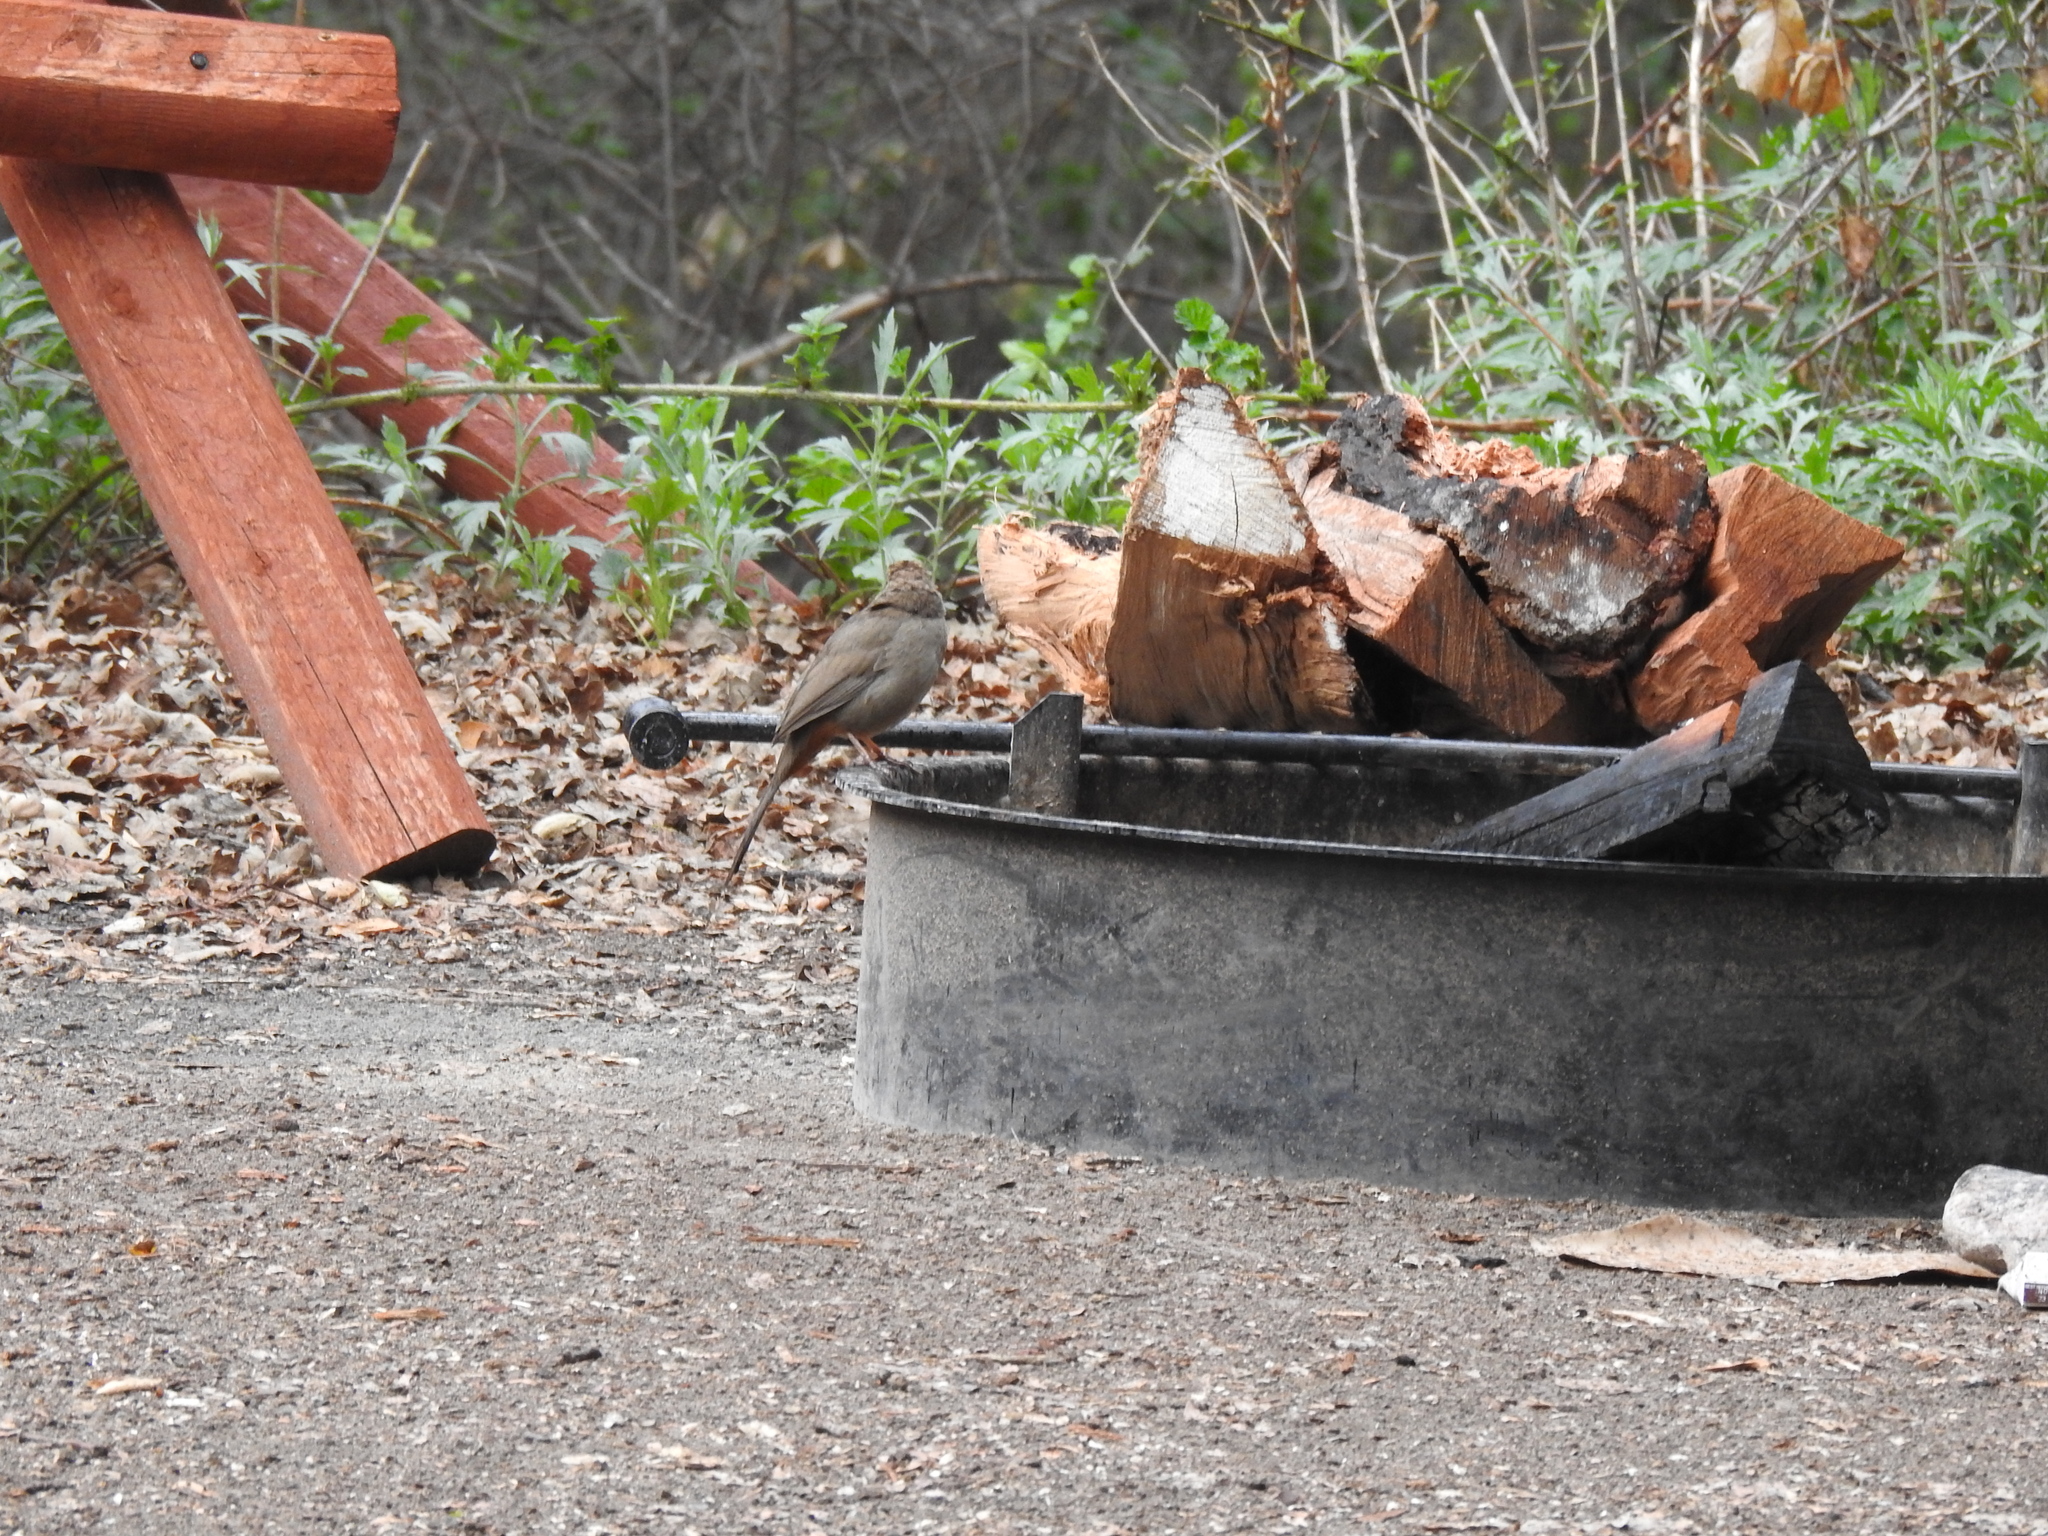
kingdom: Animalia
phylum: Chordata
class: Aves
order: Passeriformes
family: Passerellidae
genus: Melozone
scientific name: Melozone crissalis
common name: California towhee
